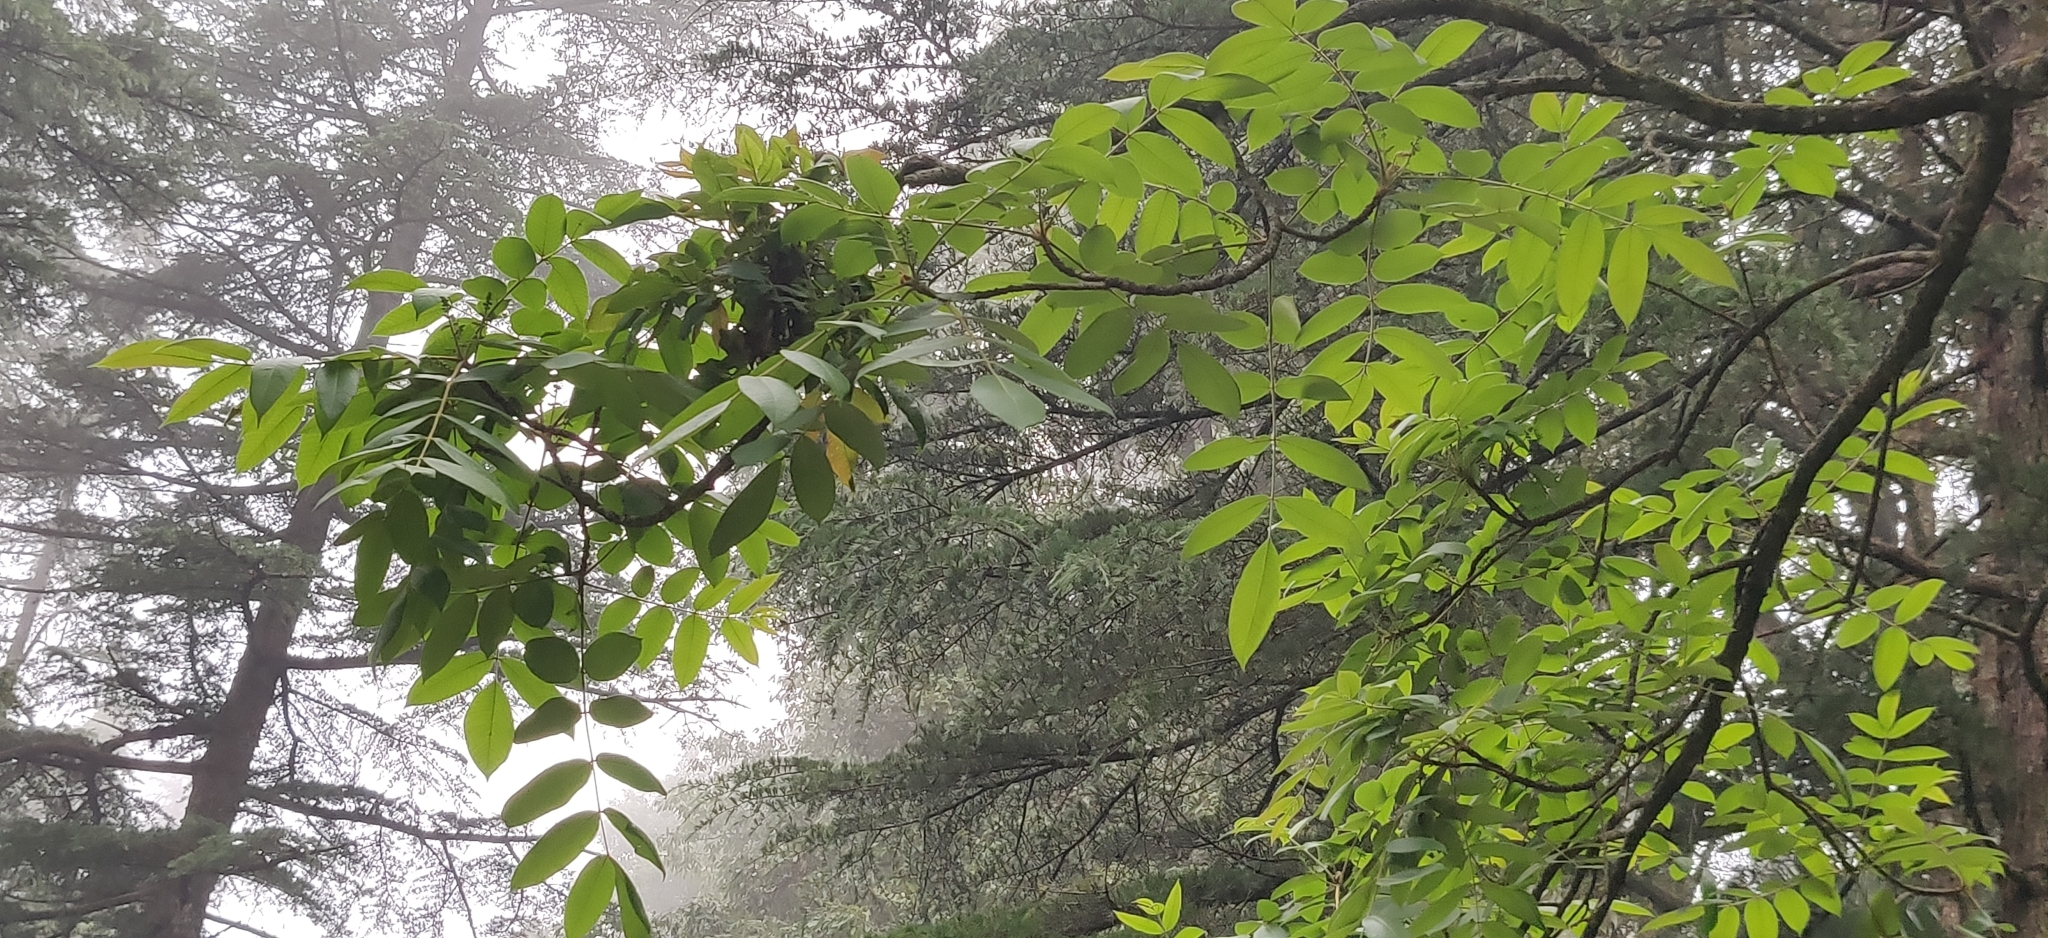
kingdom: Plantae
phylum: Tracheophyta
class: Magnoliopsida
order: Sapindales
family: Anacardiaceae
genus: Toxicodendron
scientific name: Toxicodendron wallichii
